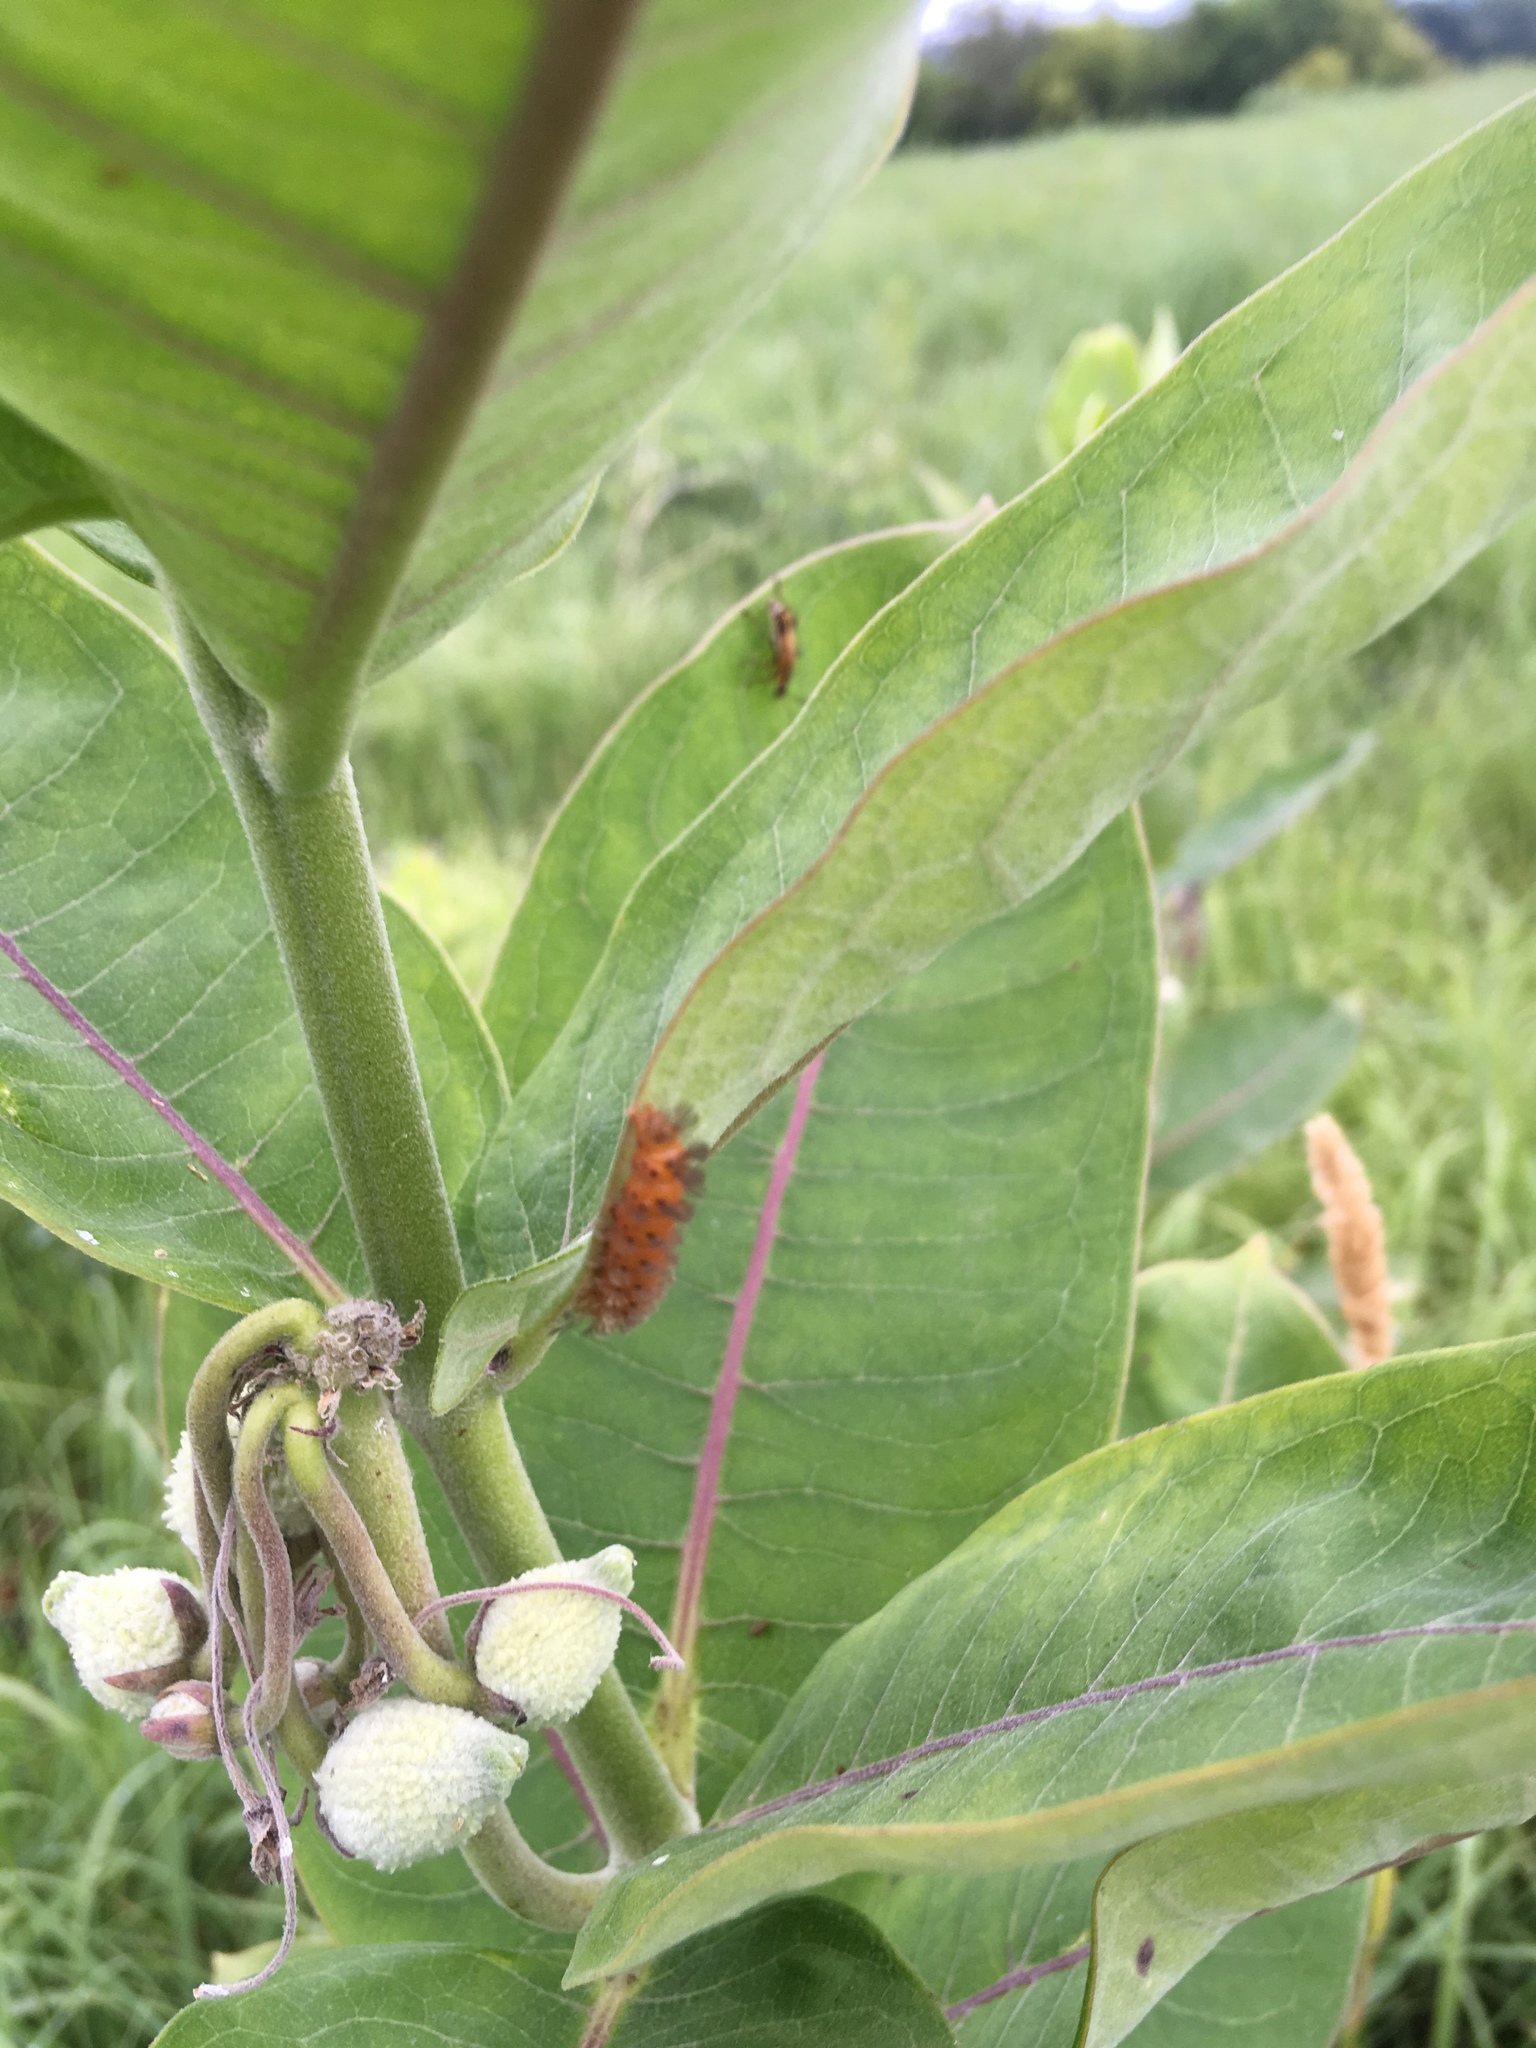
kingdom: Animalia
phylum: Arthropoda
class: Insecta
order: Lepidoptera
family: Erebidae
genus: Cycnia
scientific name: Cycnia collaris
